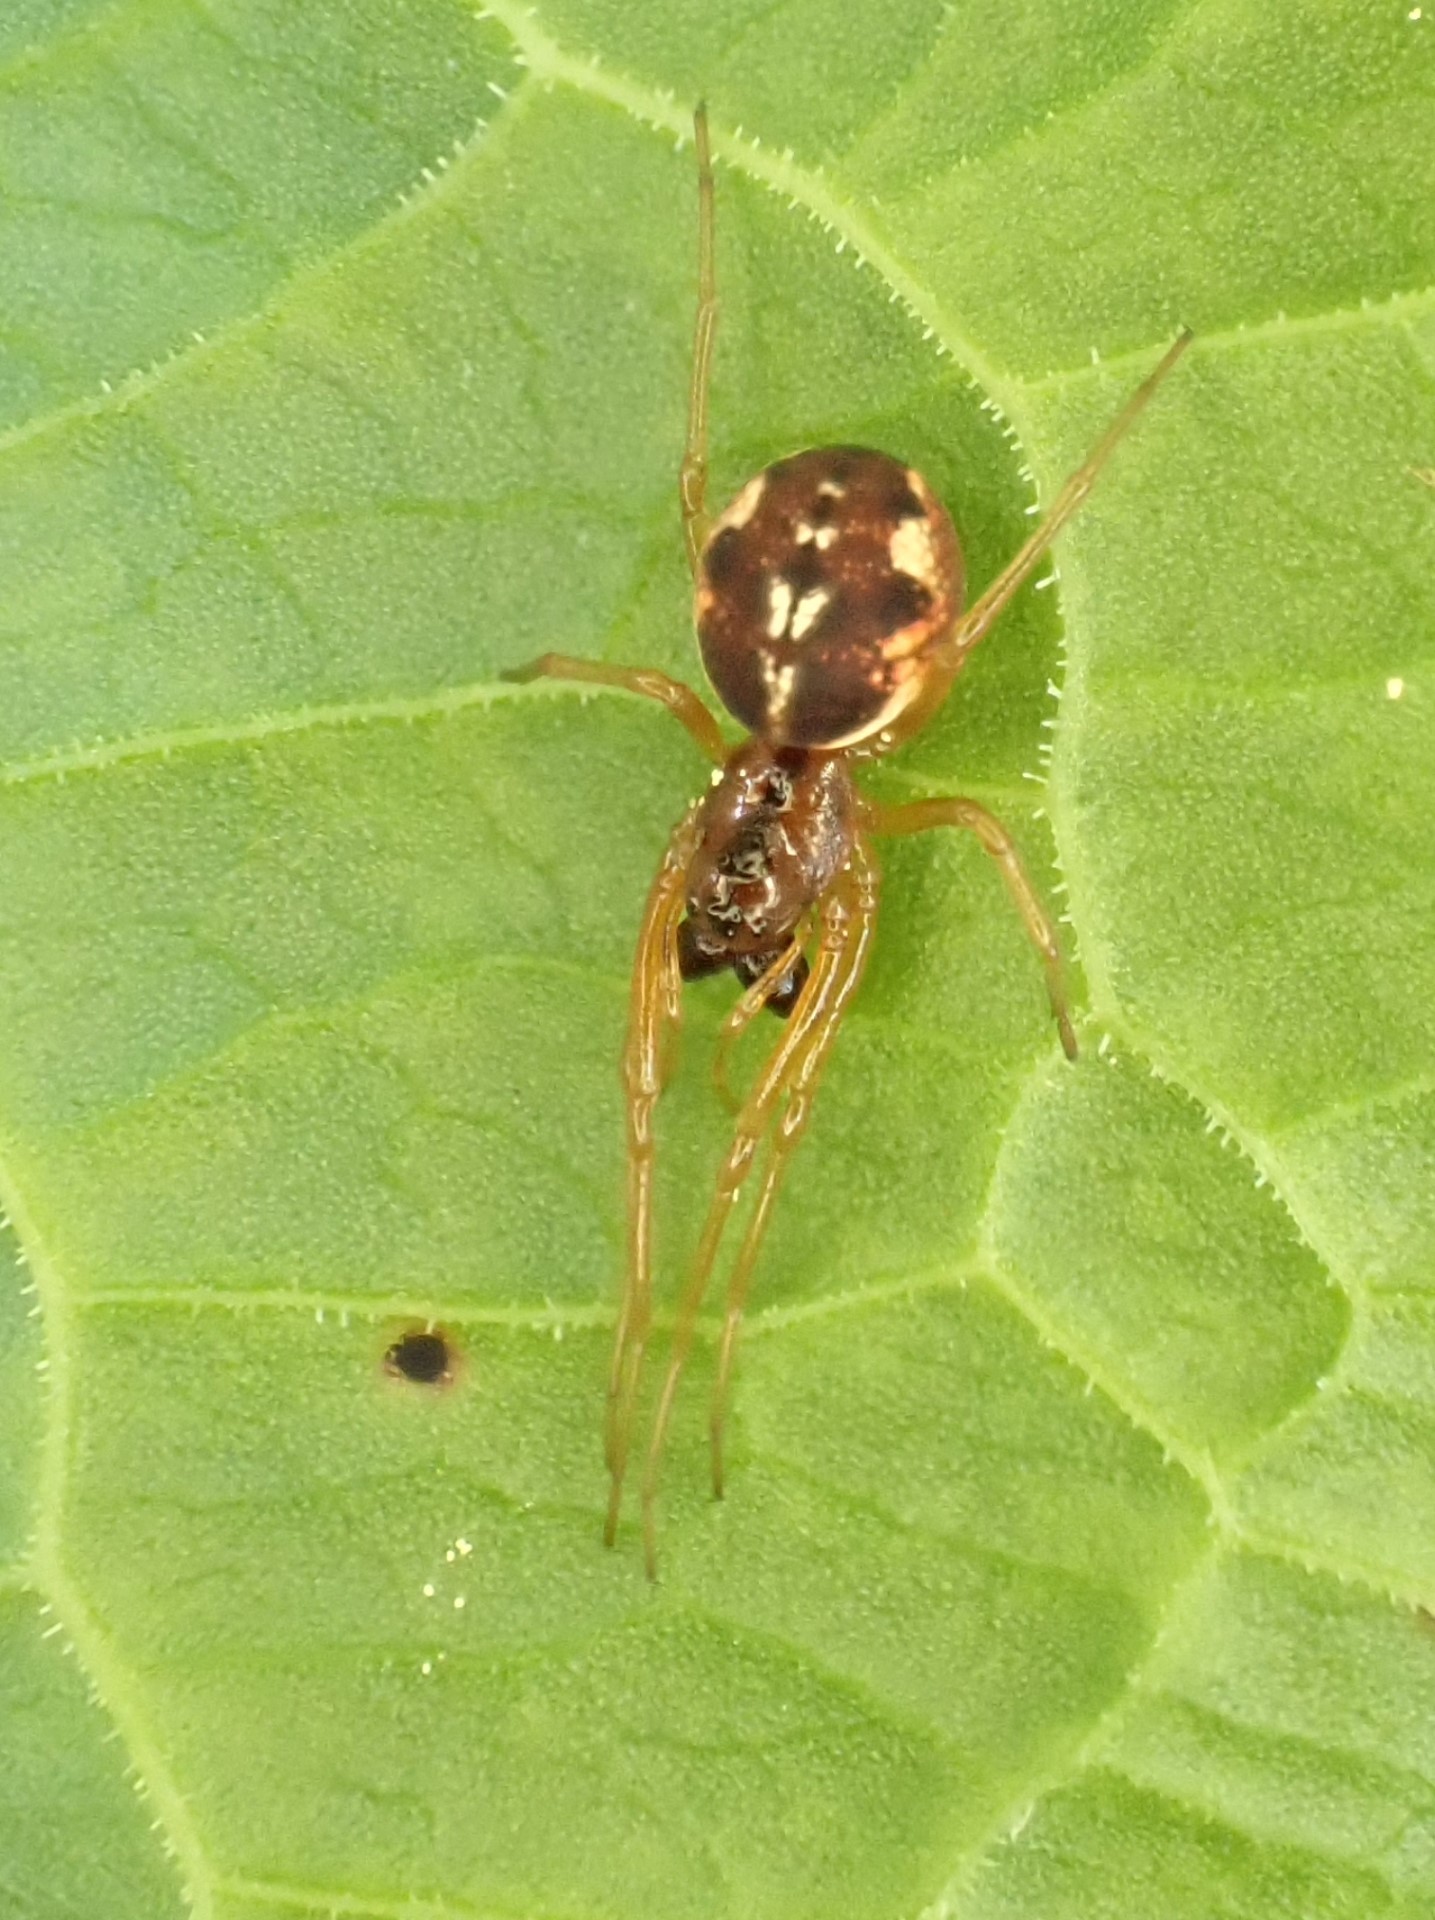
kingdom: Animalia
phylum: Arthropoda
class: Arachnida
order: Araneae
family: Tetragnathidae
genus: Pachygnatha
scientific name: Pachygnatha listeri
